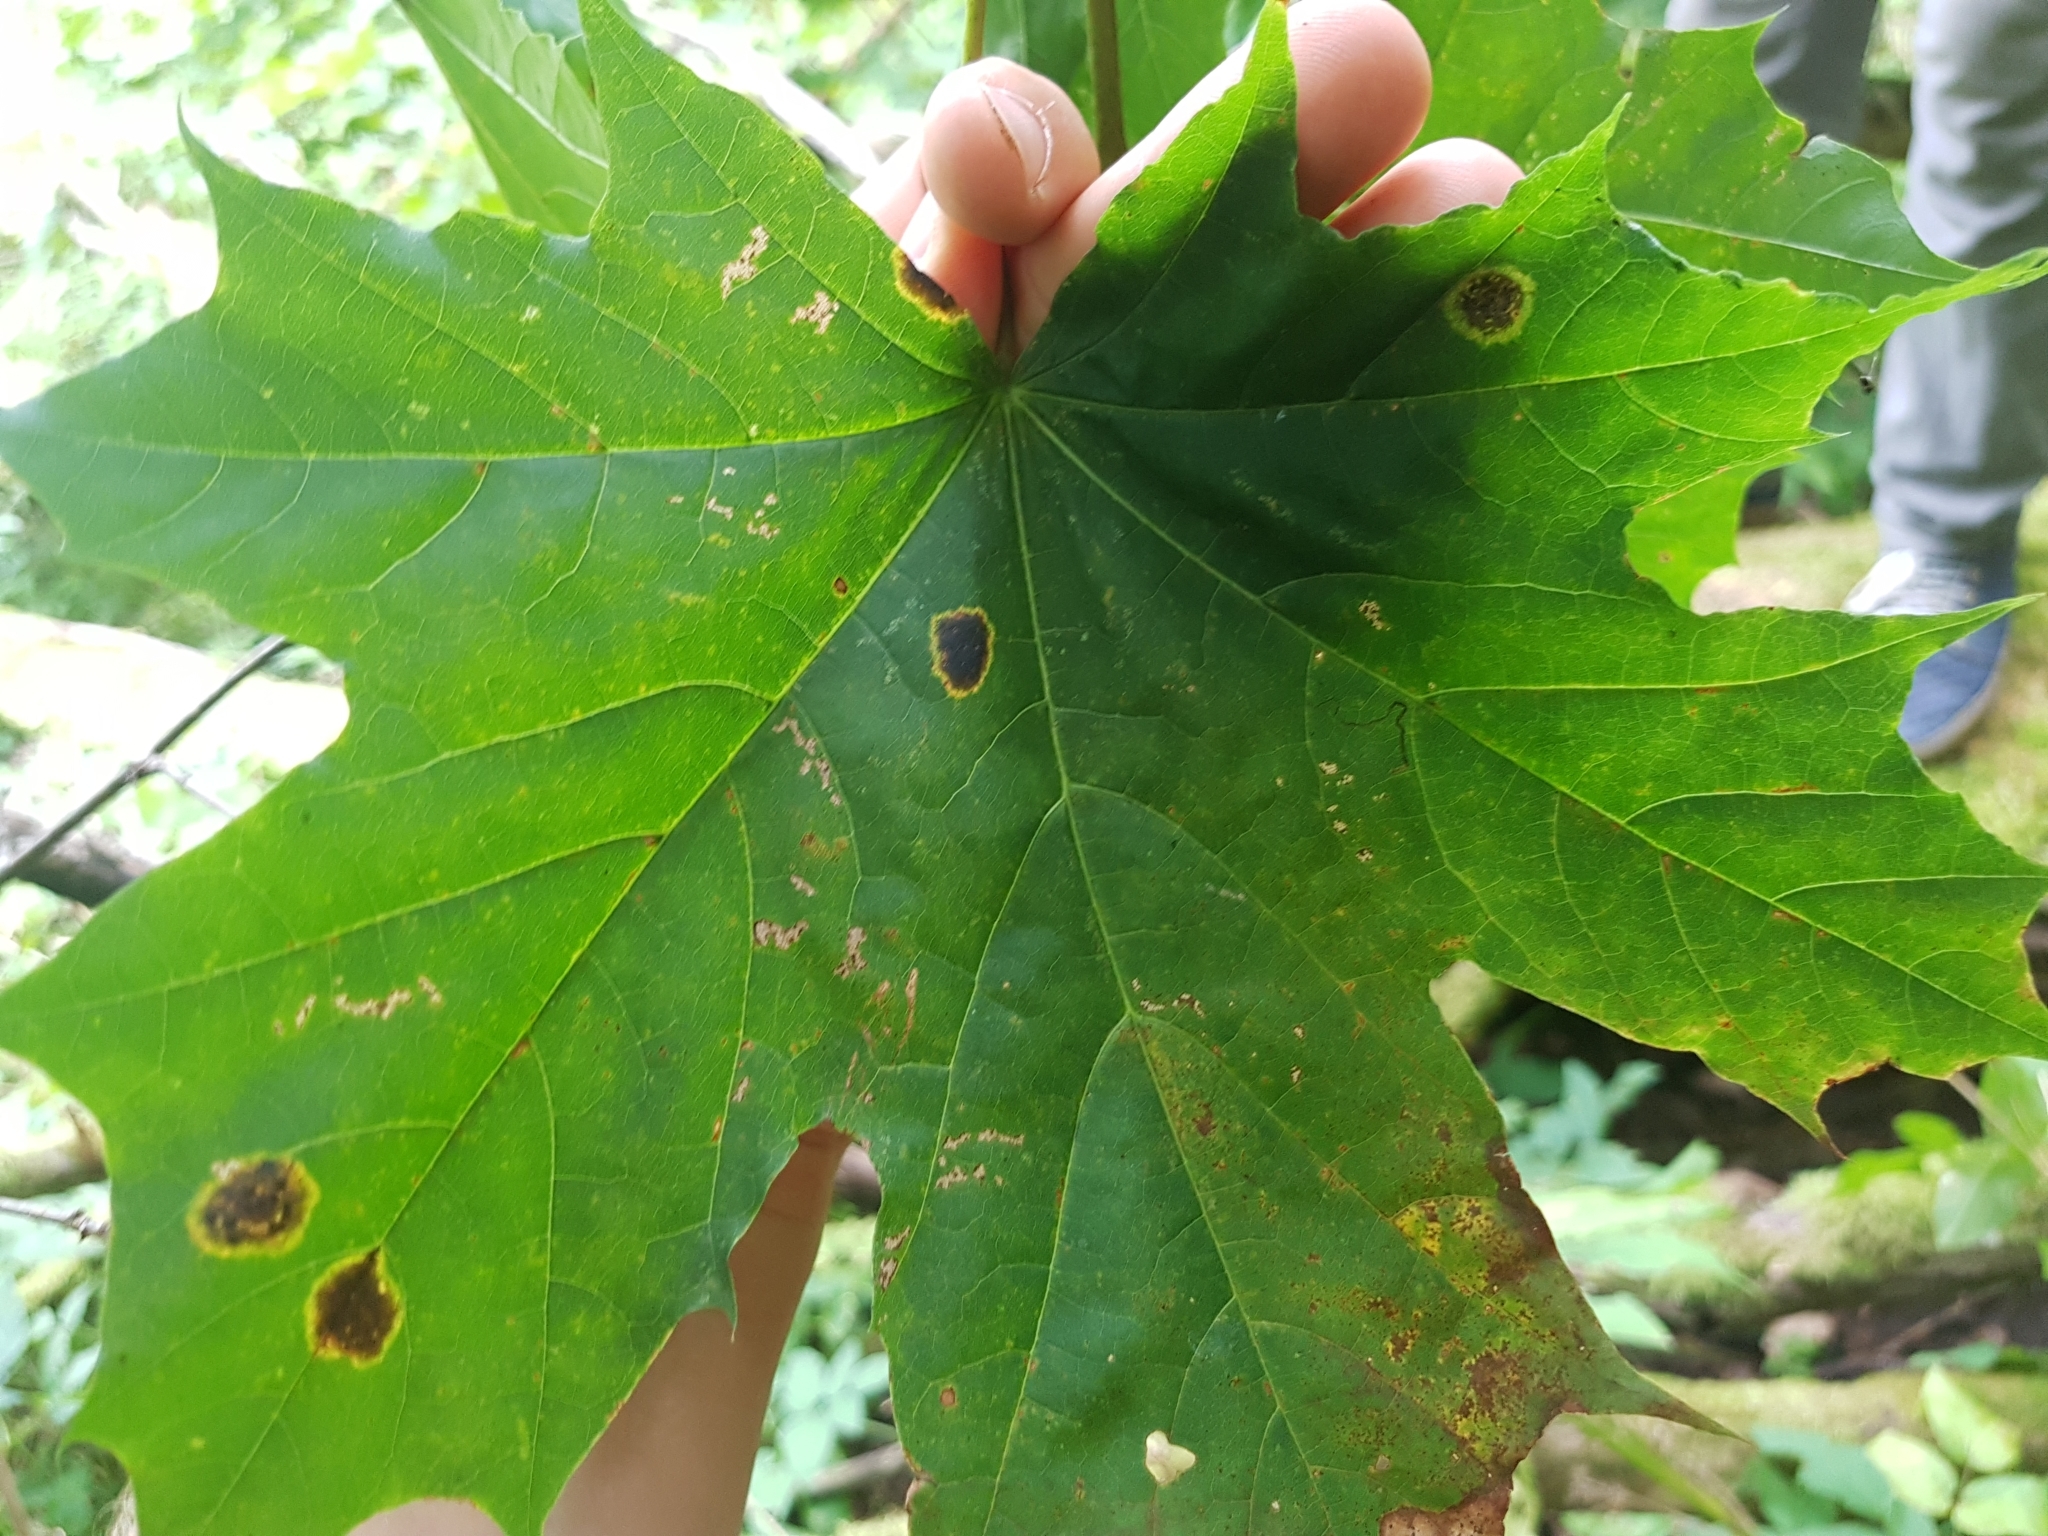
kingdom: Fungi
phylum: Ascomycota
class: Leotiomycetes
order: Rhytismatales
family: Rhytismataceae
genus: Rhytisma
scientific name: Rhytisma acerinum
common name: European tar spot
